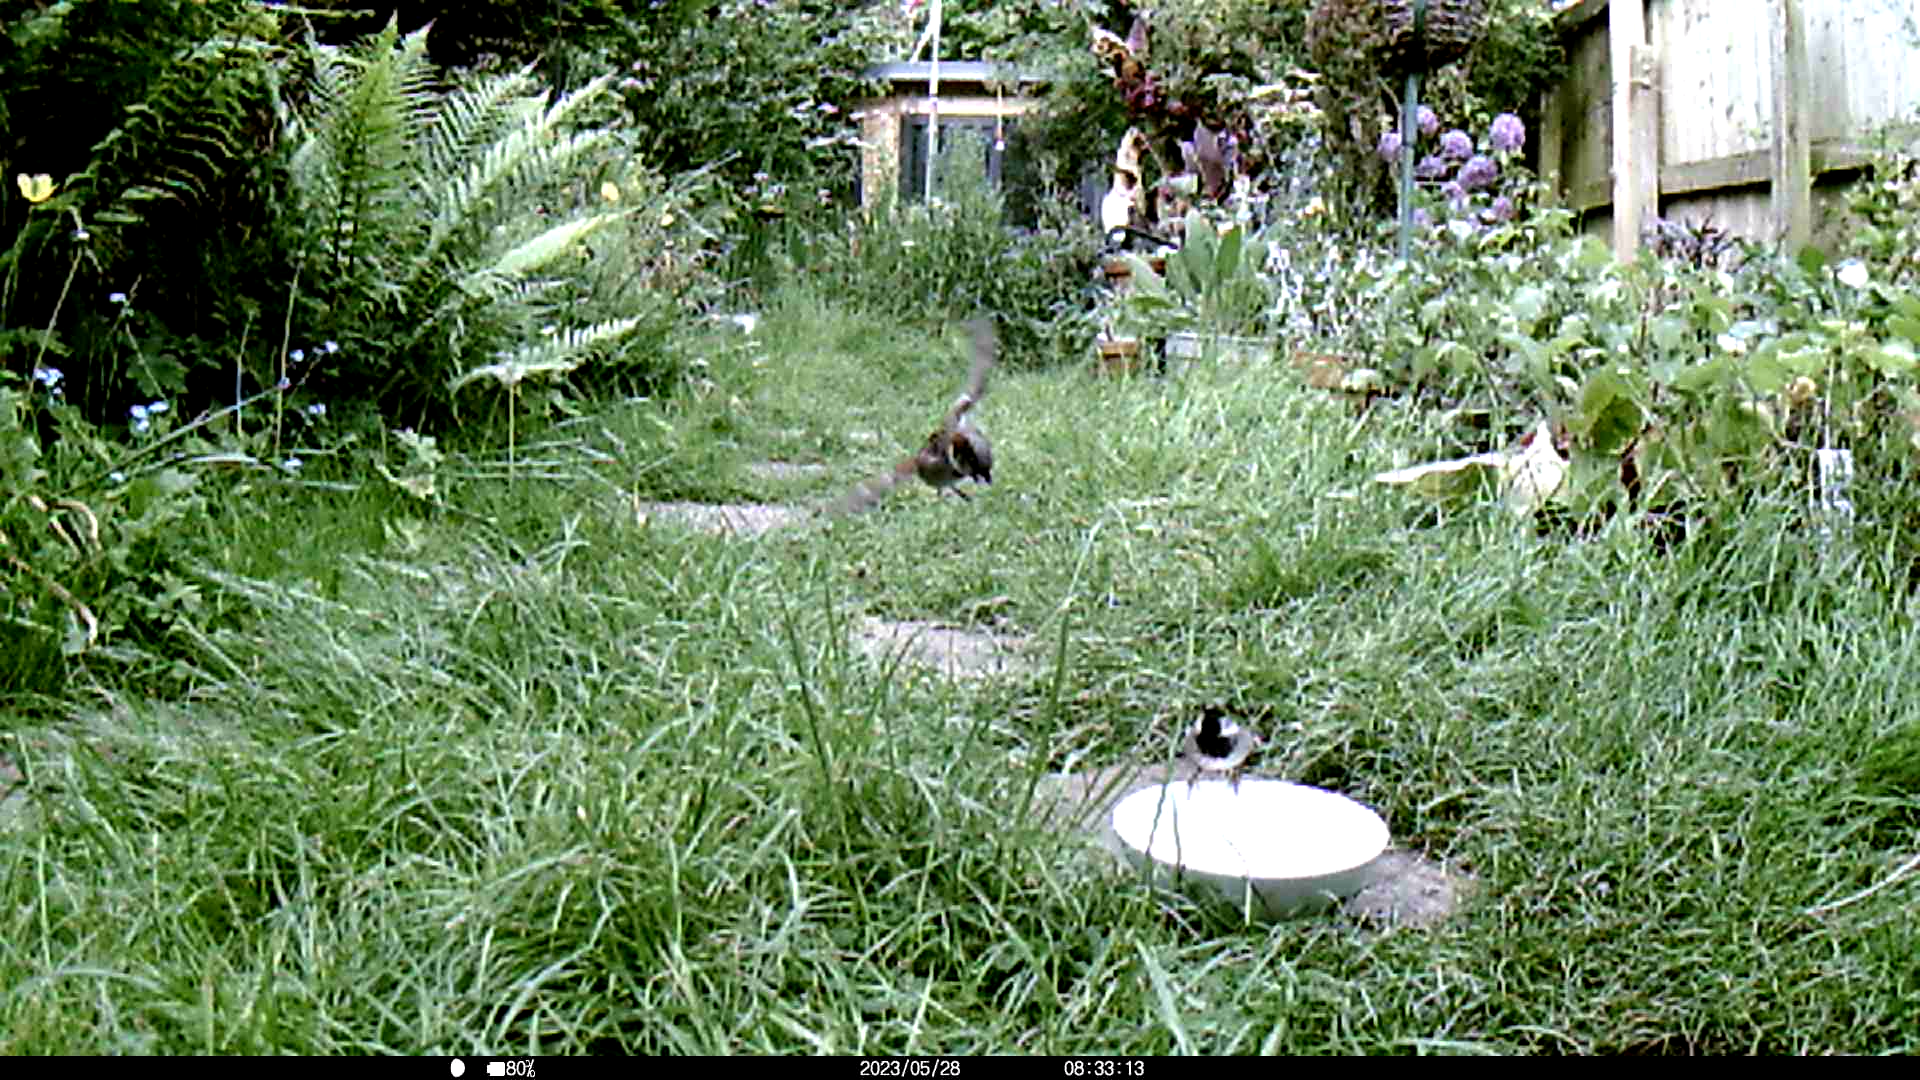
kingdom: Animalia
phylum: Chordata
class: Aves
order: Passeriformes
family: Passeridae
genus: Passer
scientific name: Passer domesticus
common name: House sparrow
